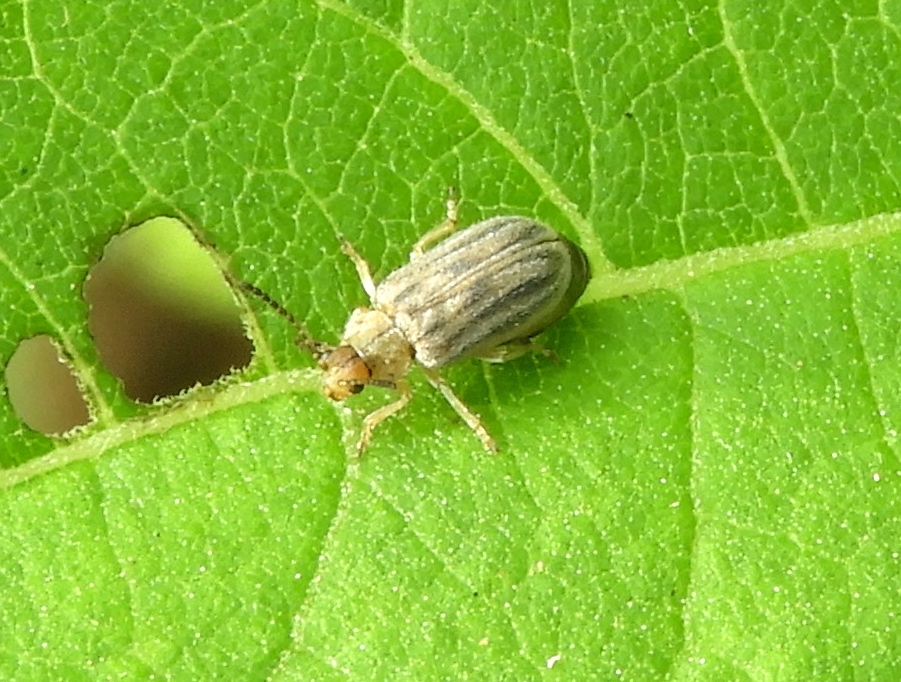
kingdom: Animalia
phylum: Arthropoda
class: Insecta
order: Coleoptera
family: Chrysomelidae
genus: Ophraella
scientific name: Ophraella communa
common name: Ragweed leaf beetle
